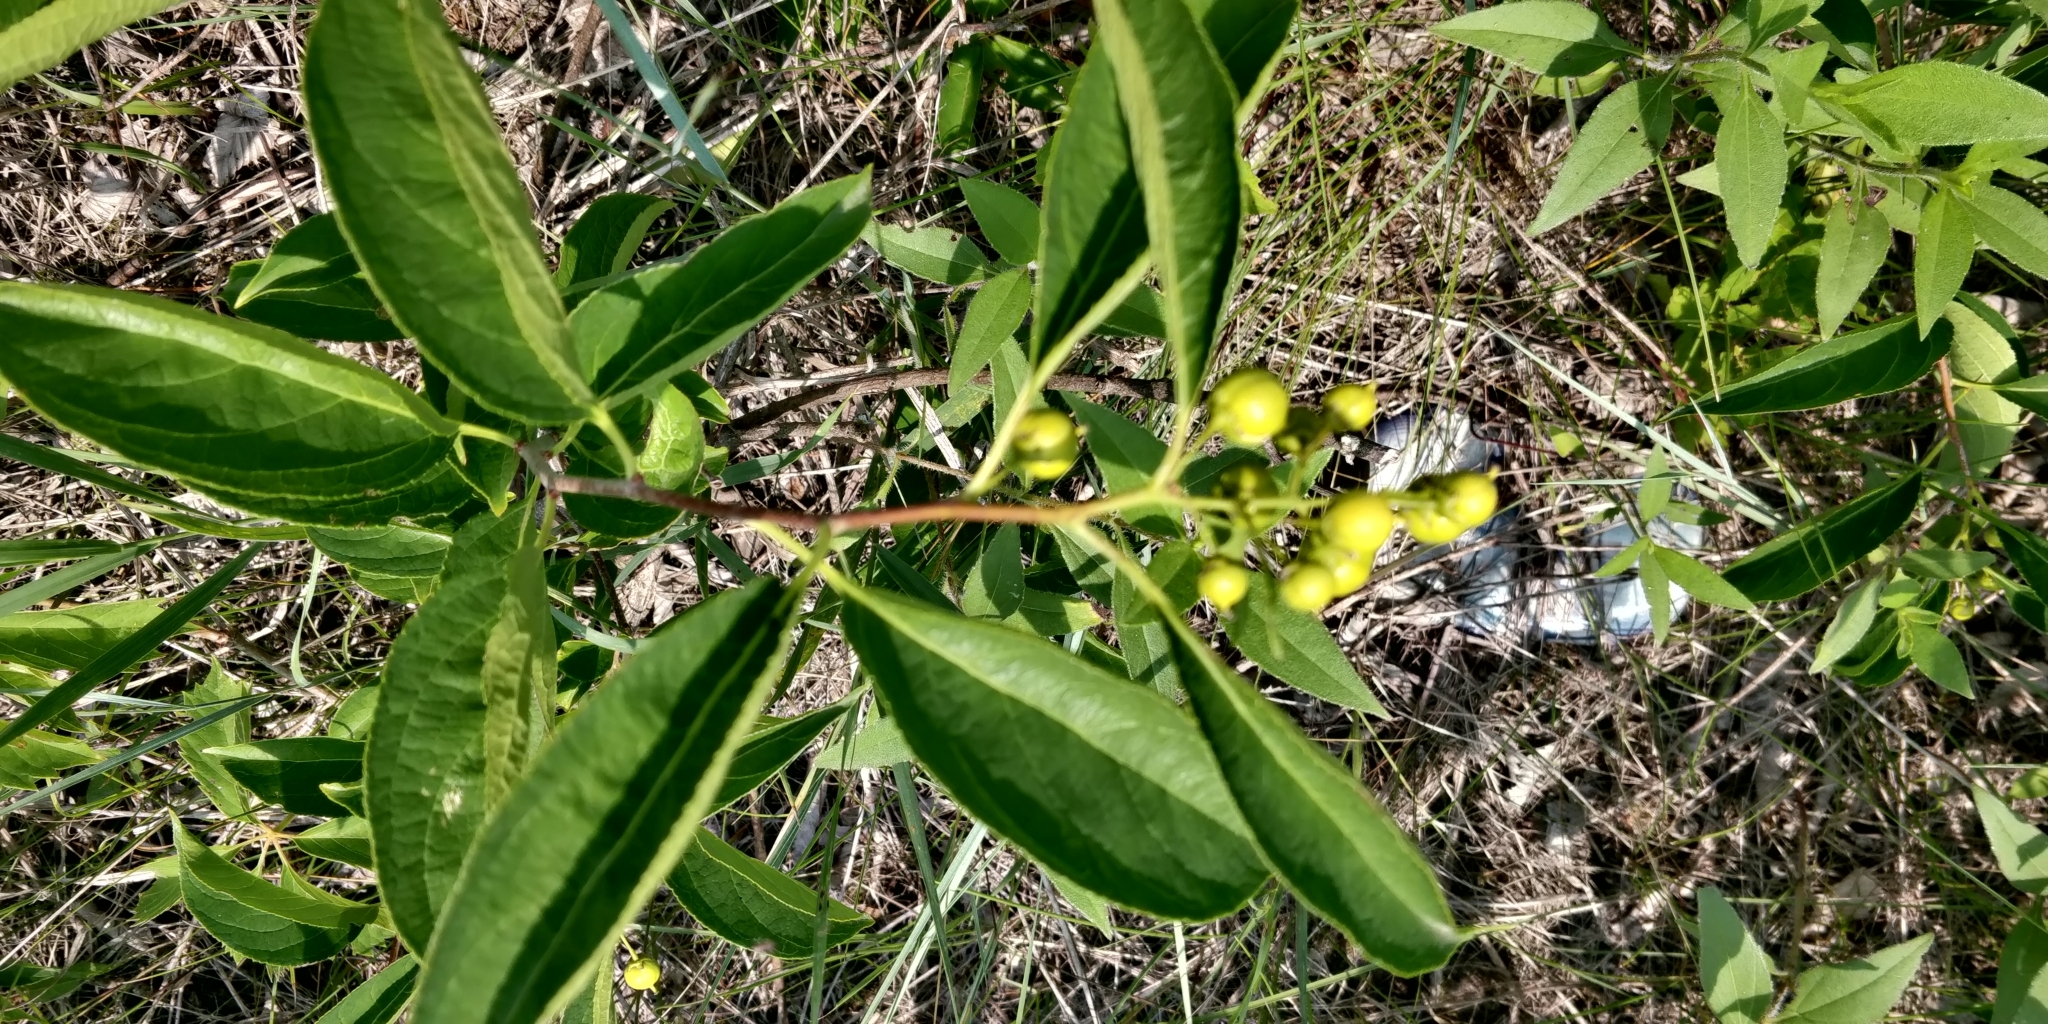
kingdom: Plantae
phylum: Tracheophyta
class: Magnoliopsida
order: Celastrales
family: Celastraceae
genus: Celastrus
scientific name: Celastrus scandens
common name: American bittersweet
